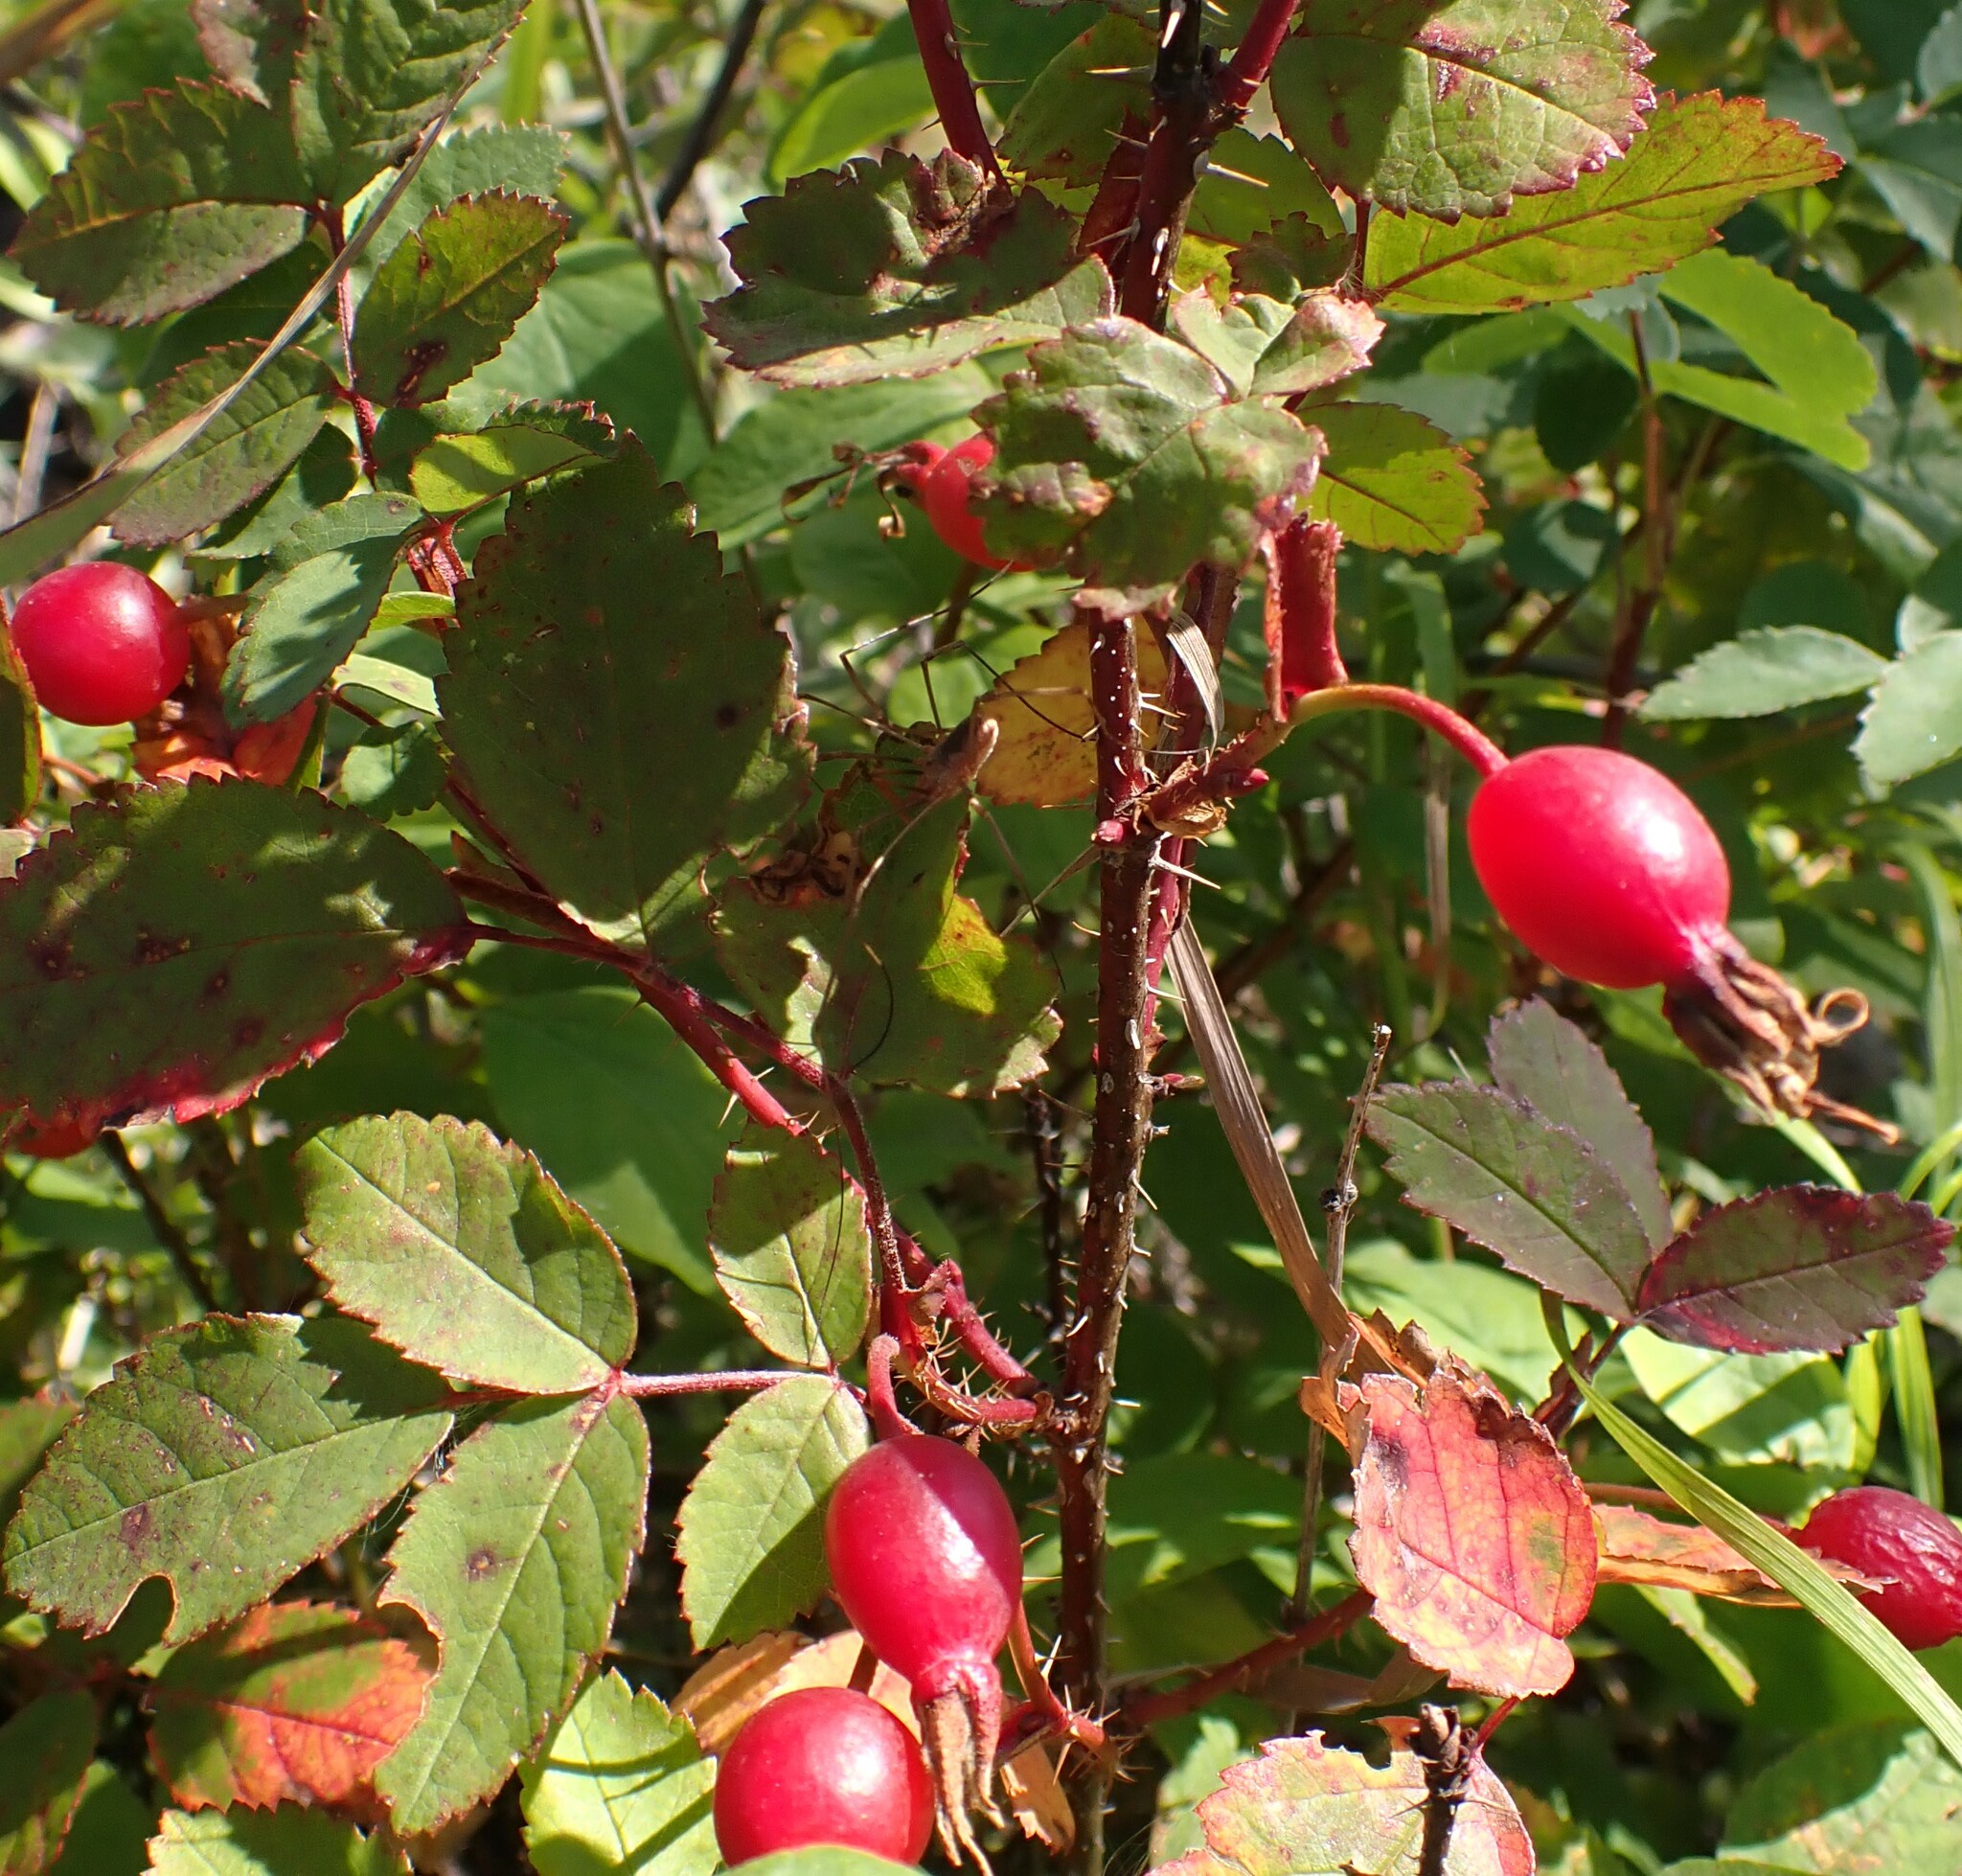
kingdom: Plantae
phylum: Tracheophyta
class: Magnoliopsida
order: Rosales
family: Rosaceae
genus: Rosa
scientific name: Rosa acicularis
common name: Prickly rose
